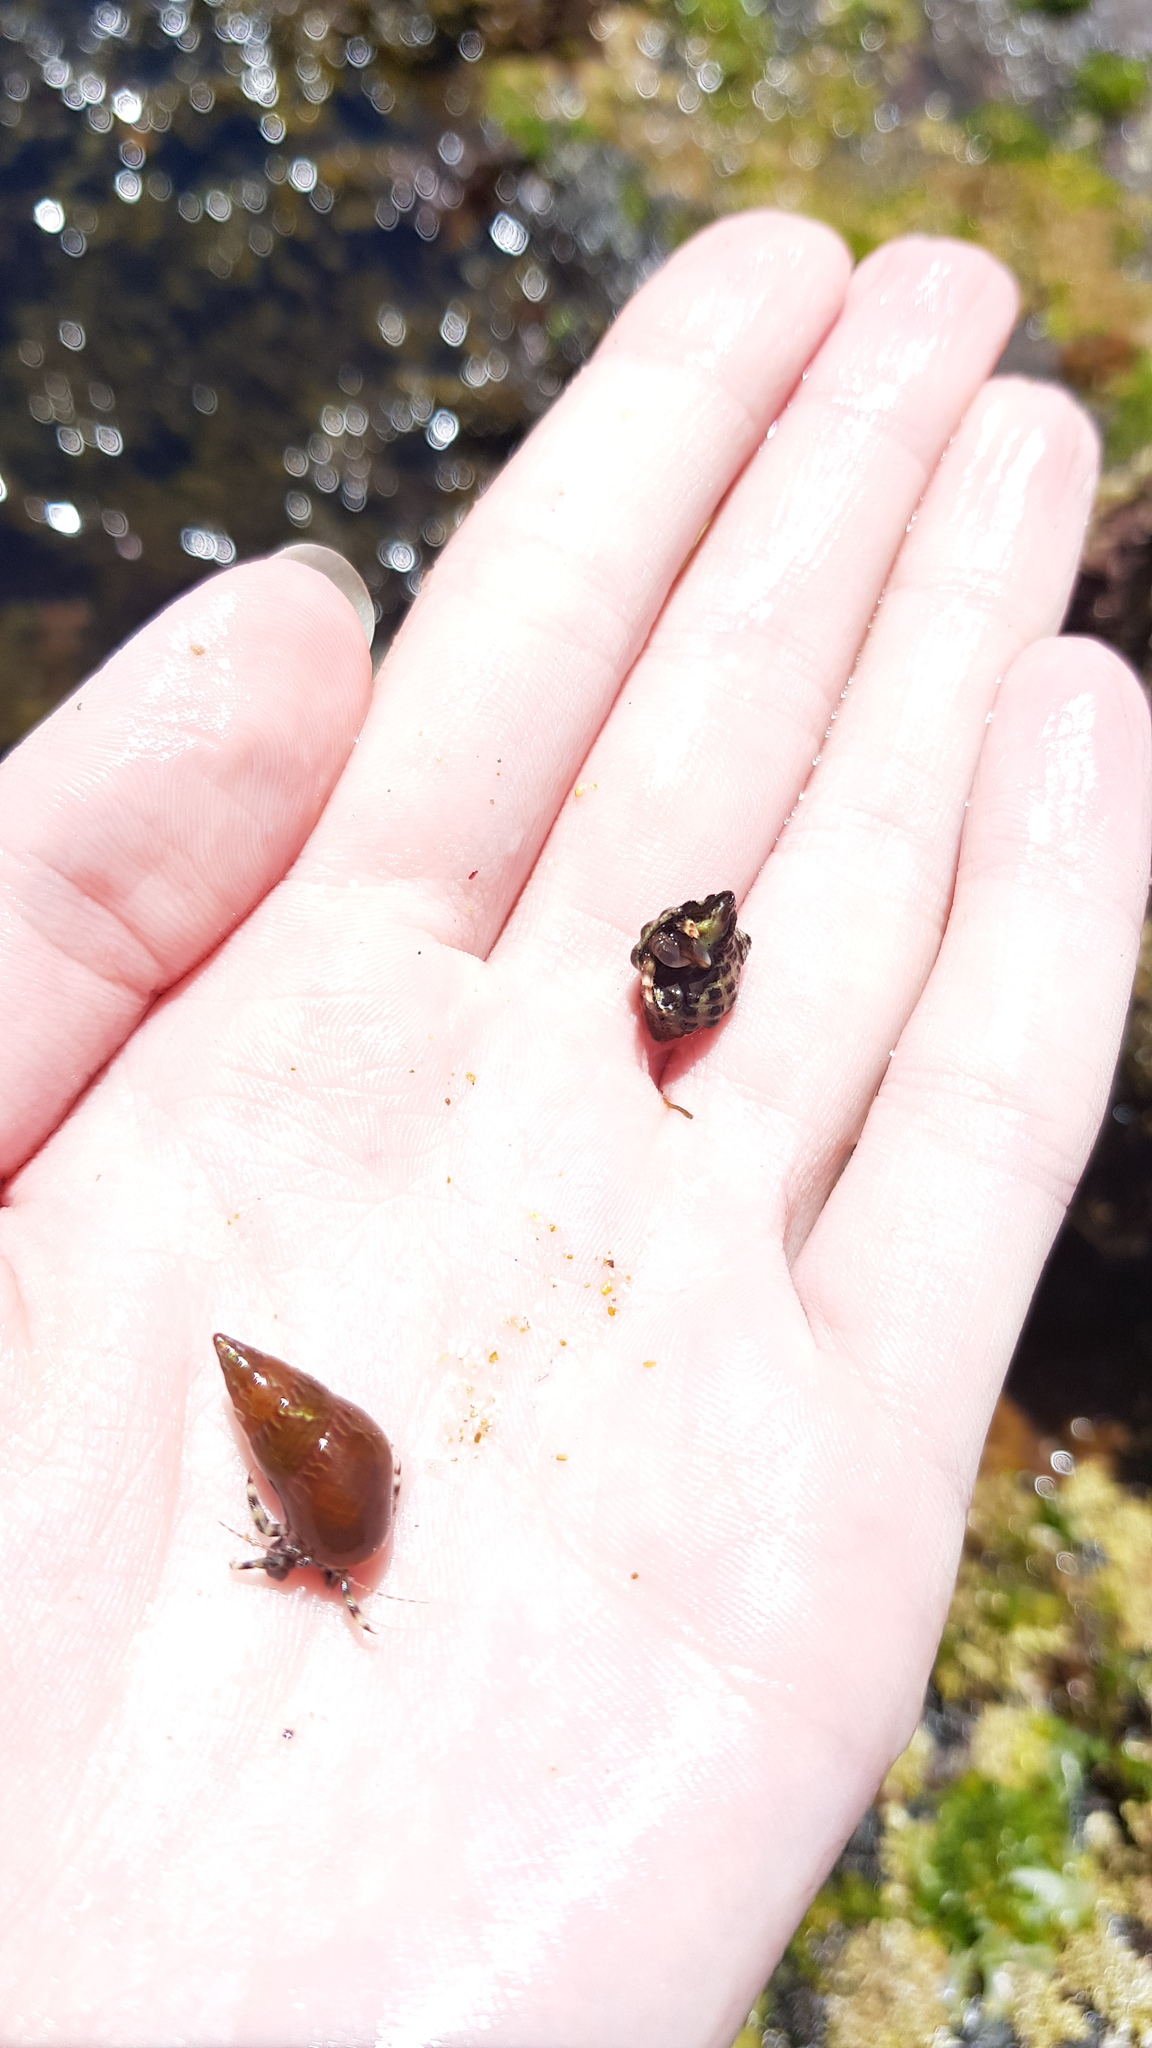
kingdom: Animalia
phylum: Mollusca
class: Gastropoda
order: Trochida
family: Trochidae
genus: Phasianotrochus
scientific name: Phasianotrochus eximius
